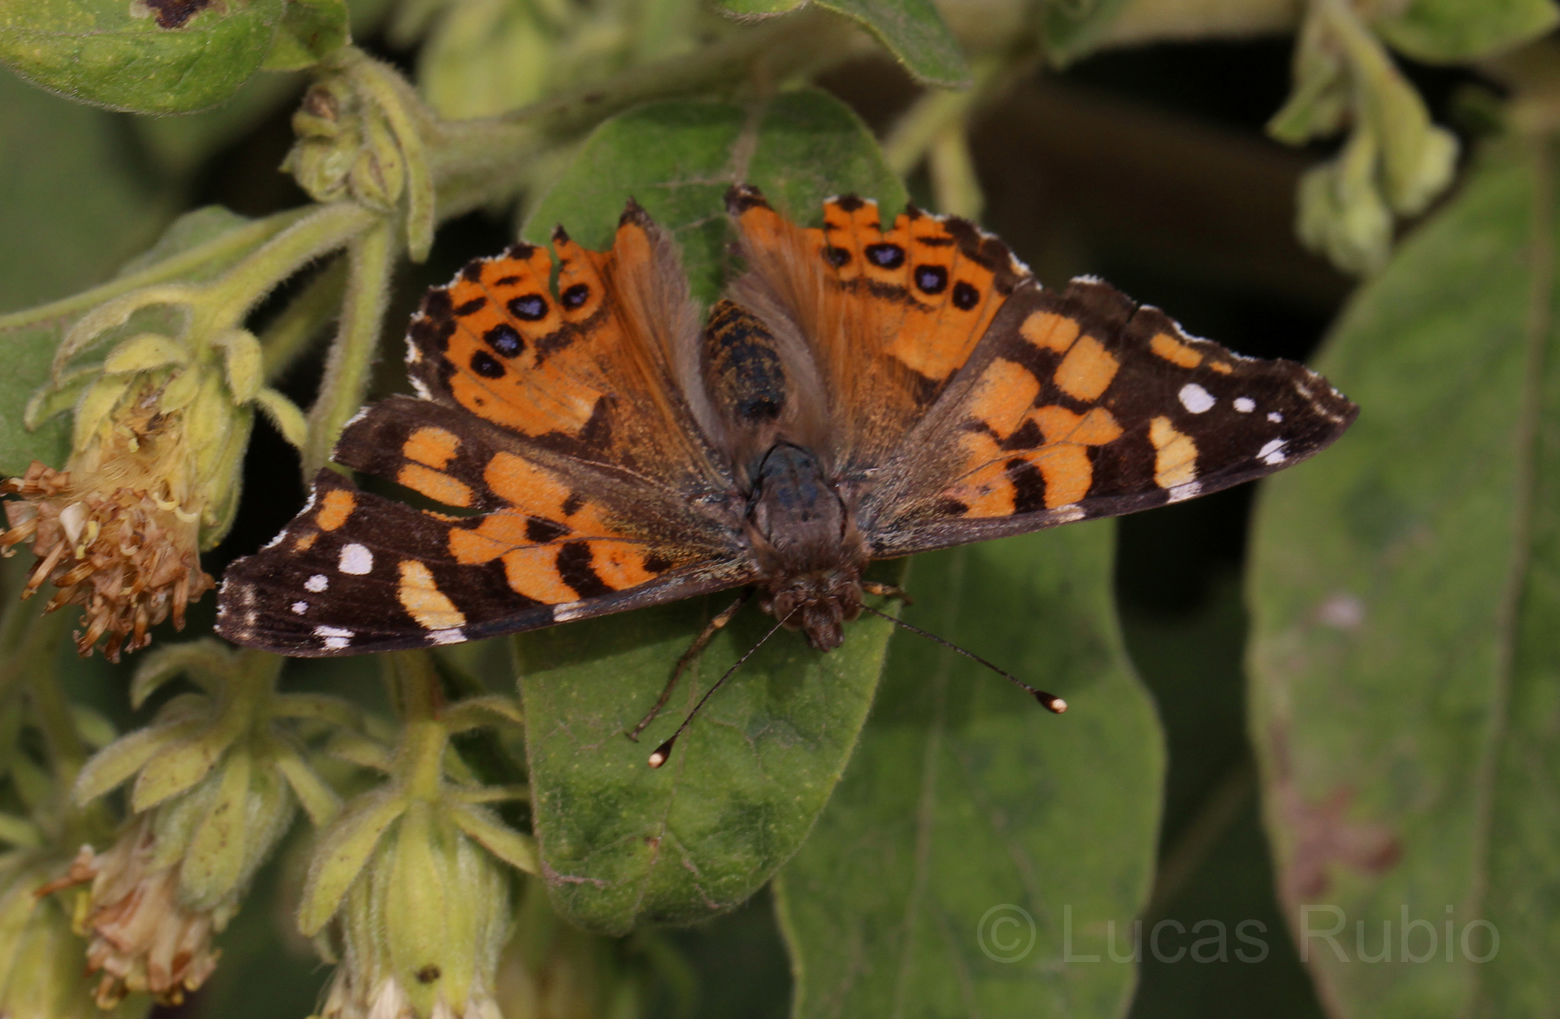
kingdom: Animalia
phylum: Arthropoda
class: Insecta
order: Lepidoptera
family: Nymphalidae
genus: Vanessa
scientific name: Vanessa carye
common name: Subtropical lady
